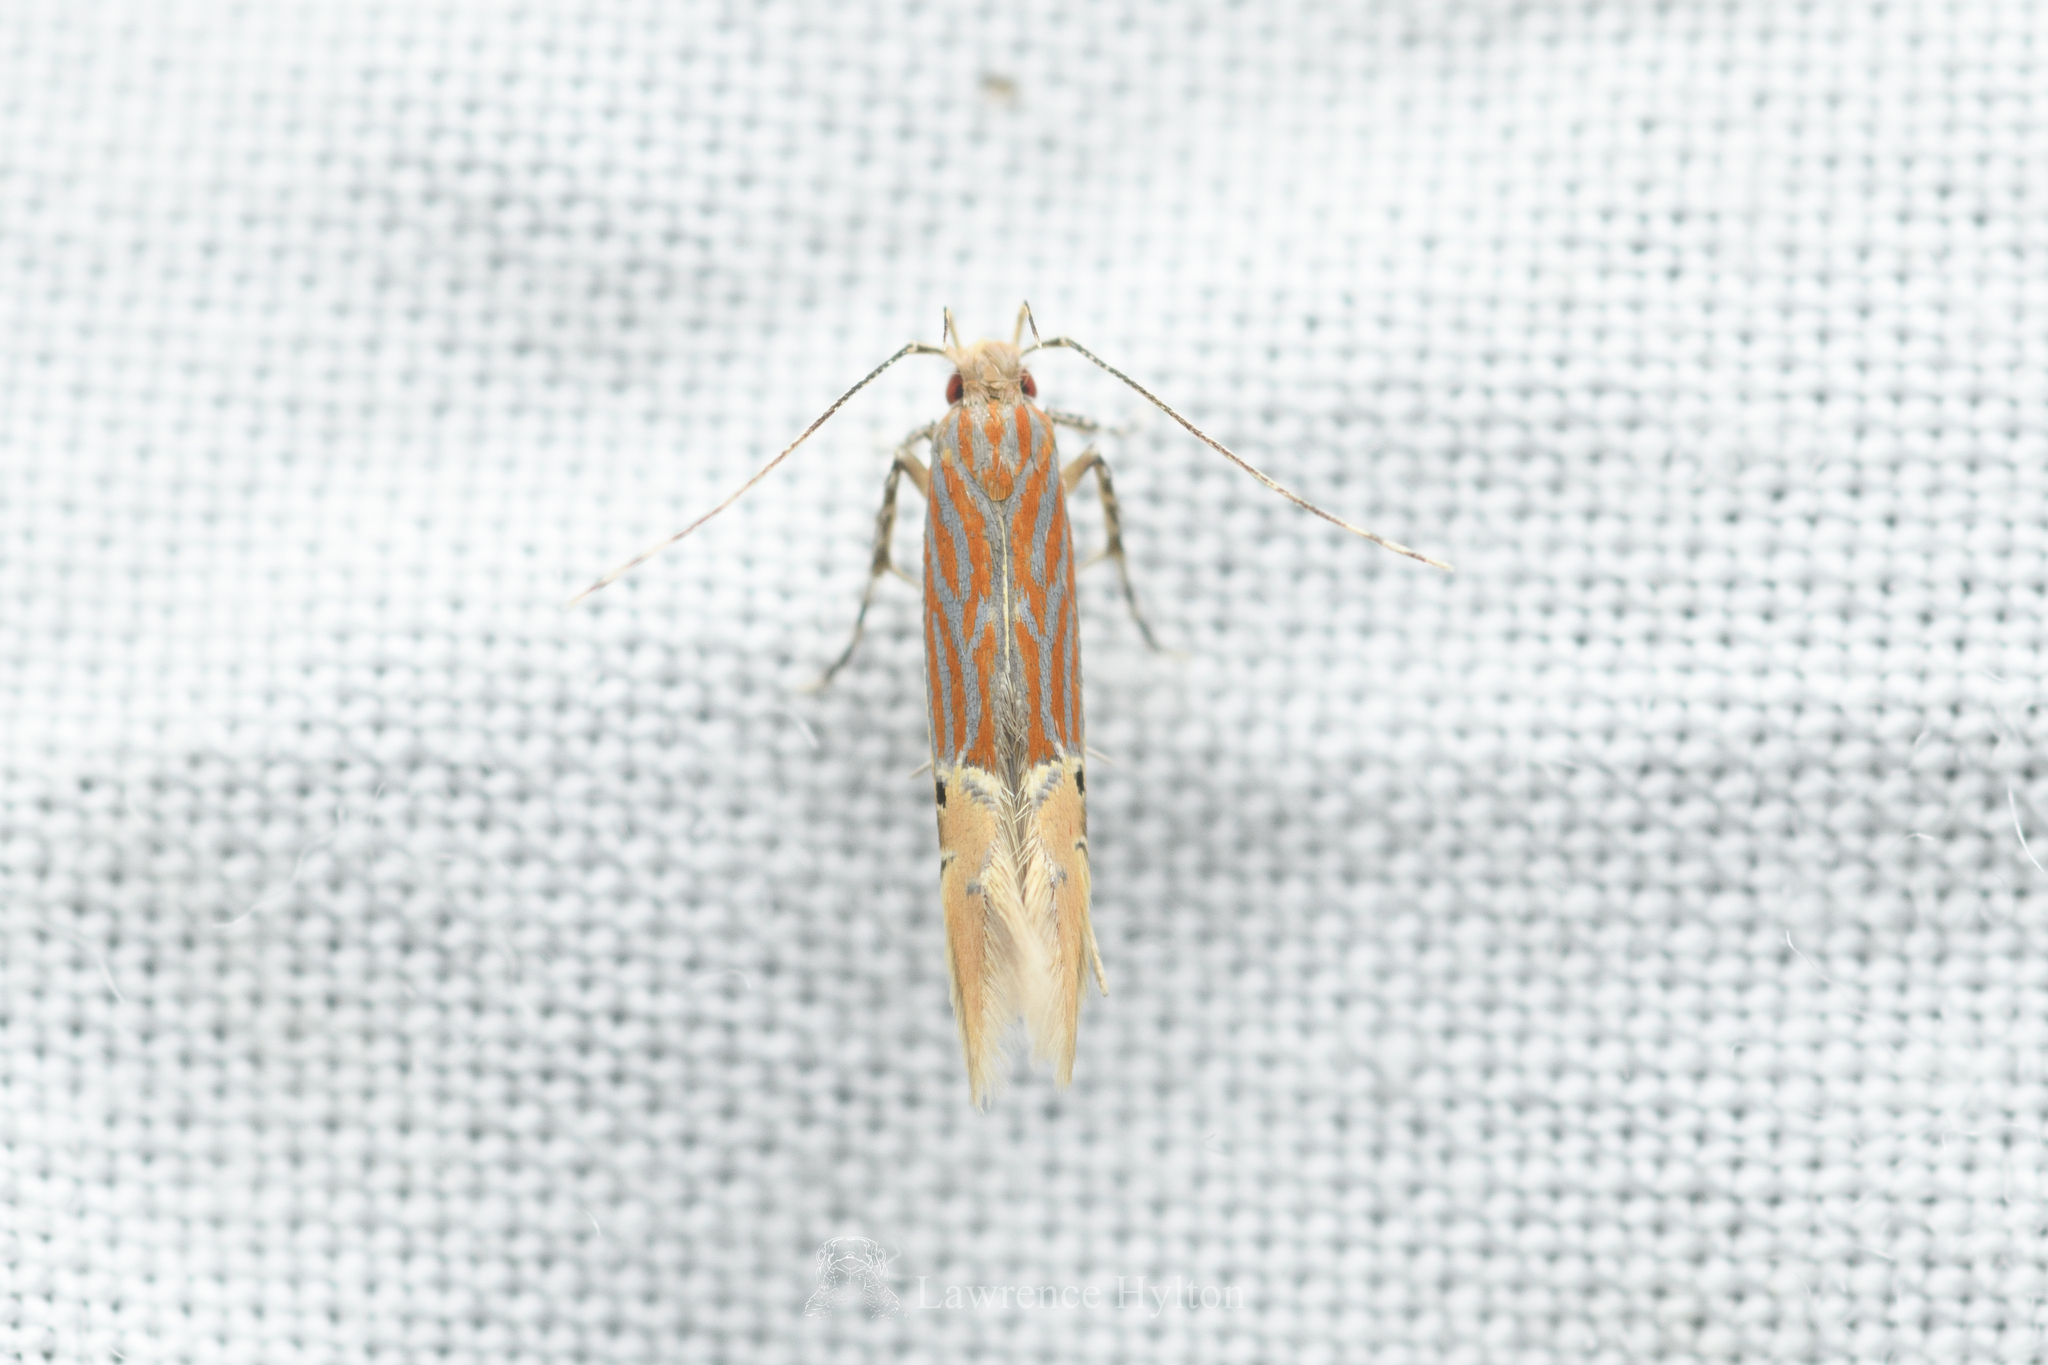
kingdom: Animalia
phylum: Arthropoda
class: Insecta
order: Lepidoptera
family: Cosmopterigidae
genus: Labdia
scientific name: Labdia semicoccinea
